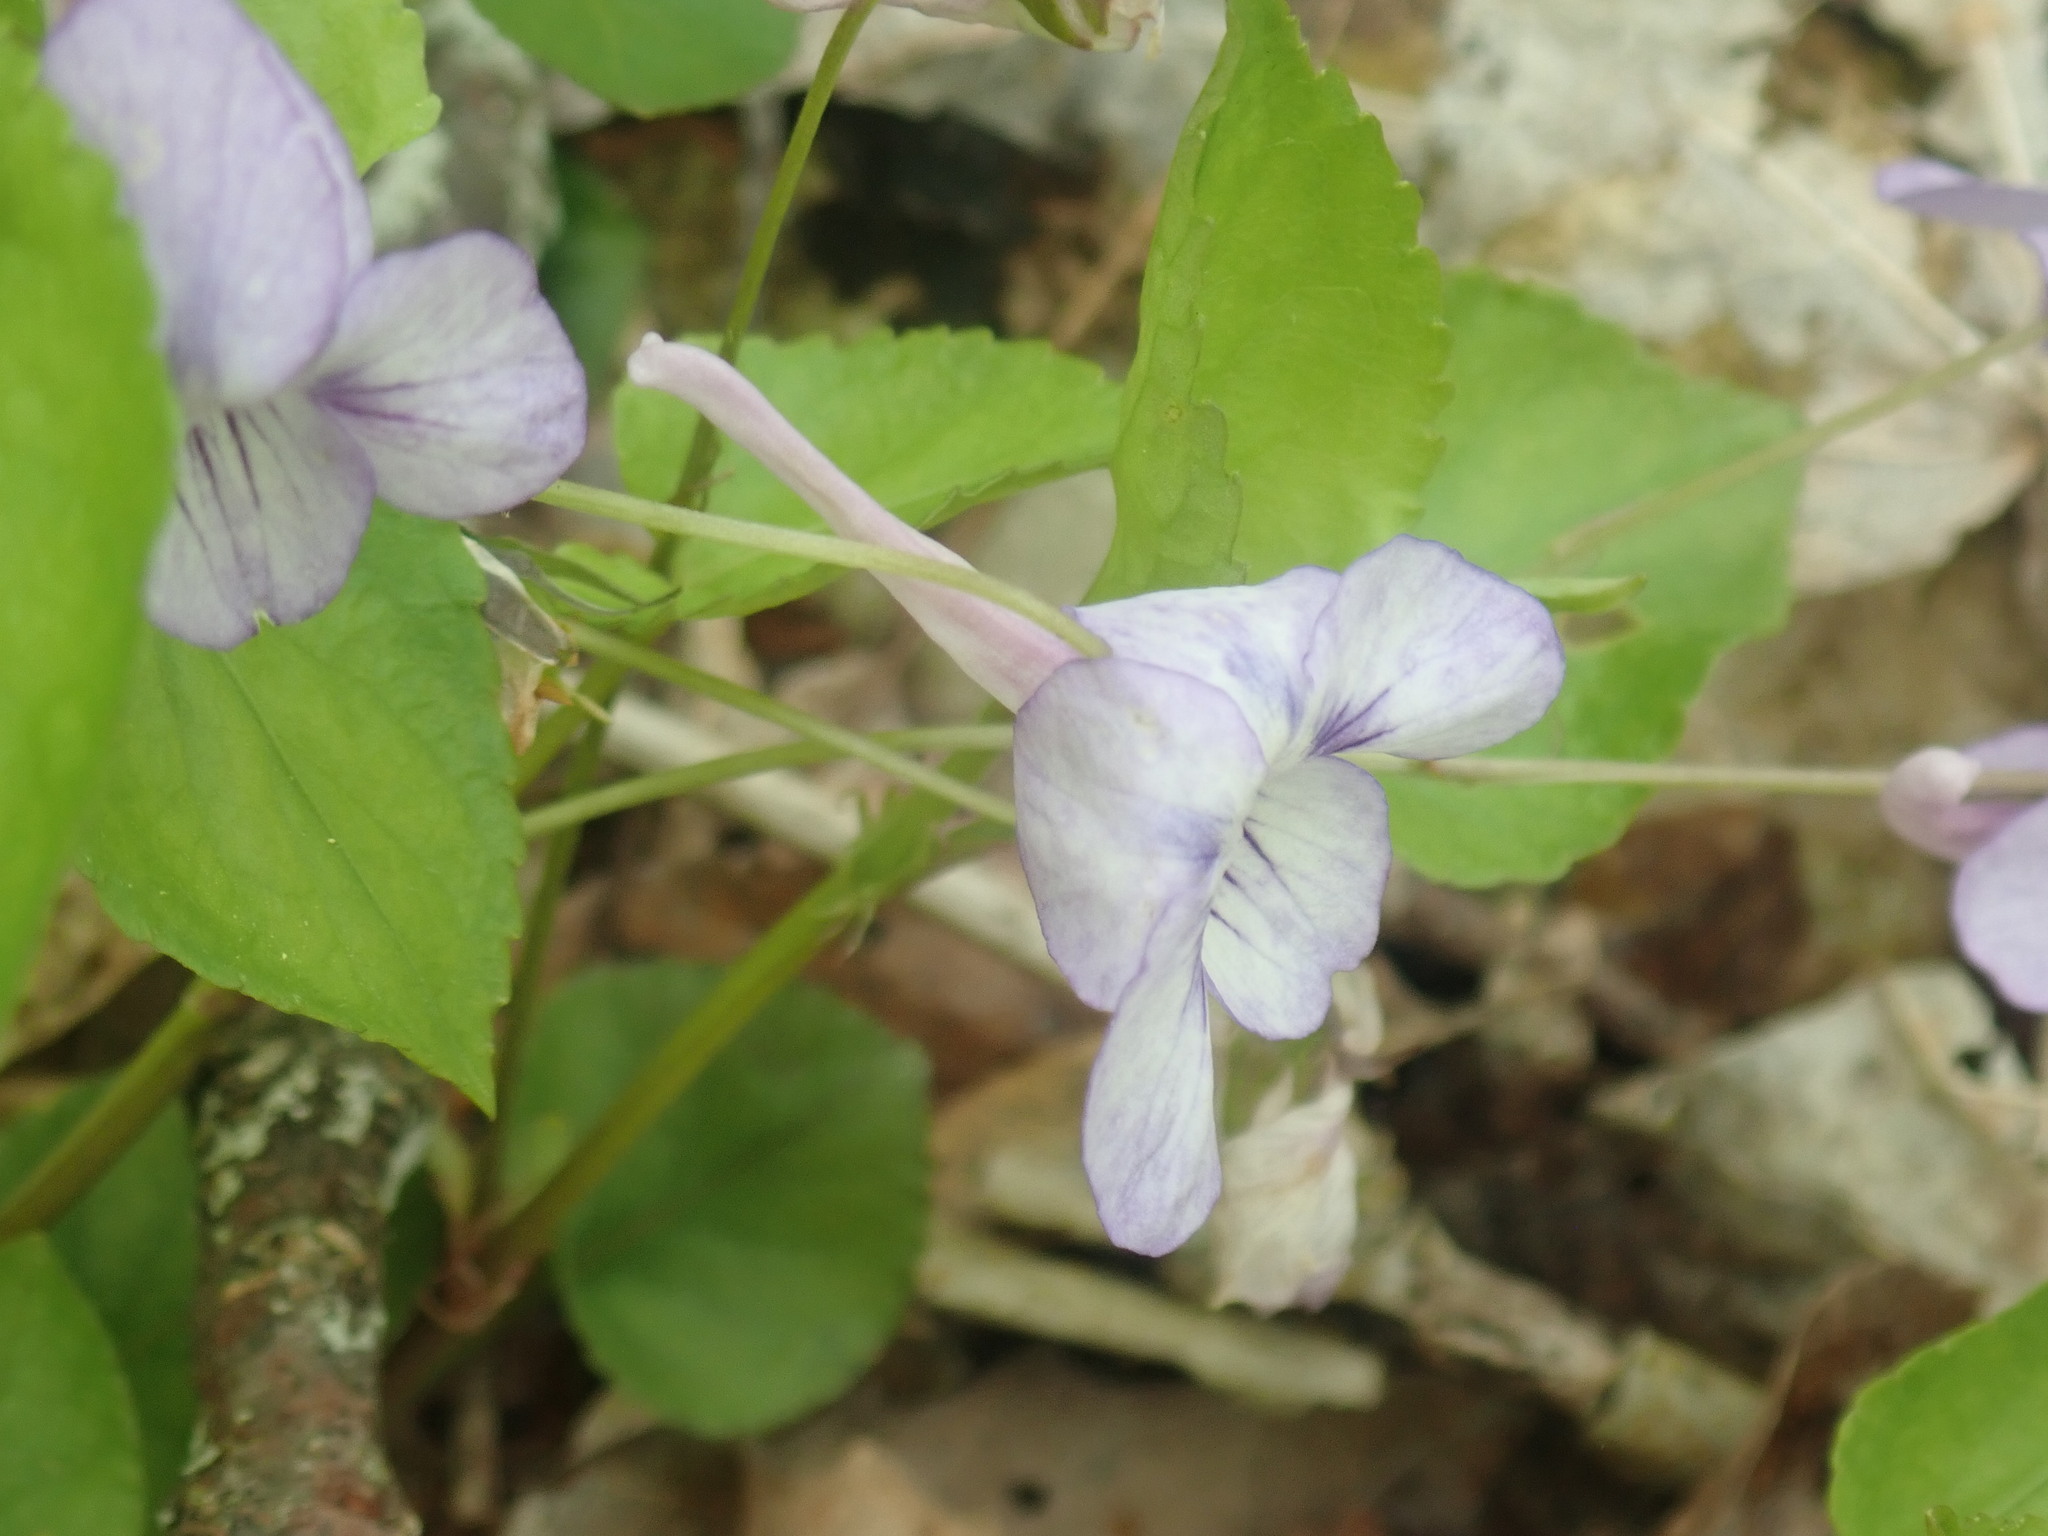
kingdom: Plantae
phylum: Tracheophyta
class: Magnoliopsida
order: Malpighiales
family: Violaceae
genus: Viola
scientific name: Viola rostrata
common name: Long-spur violet
